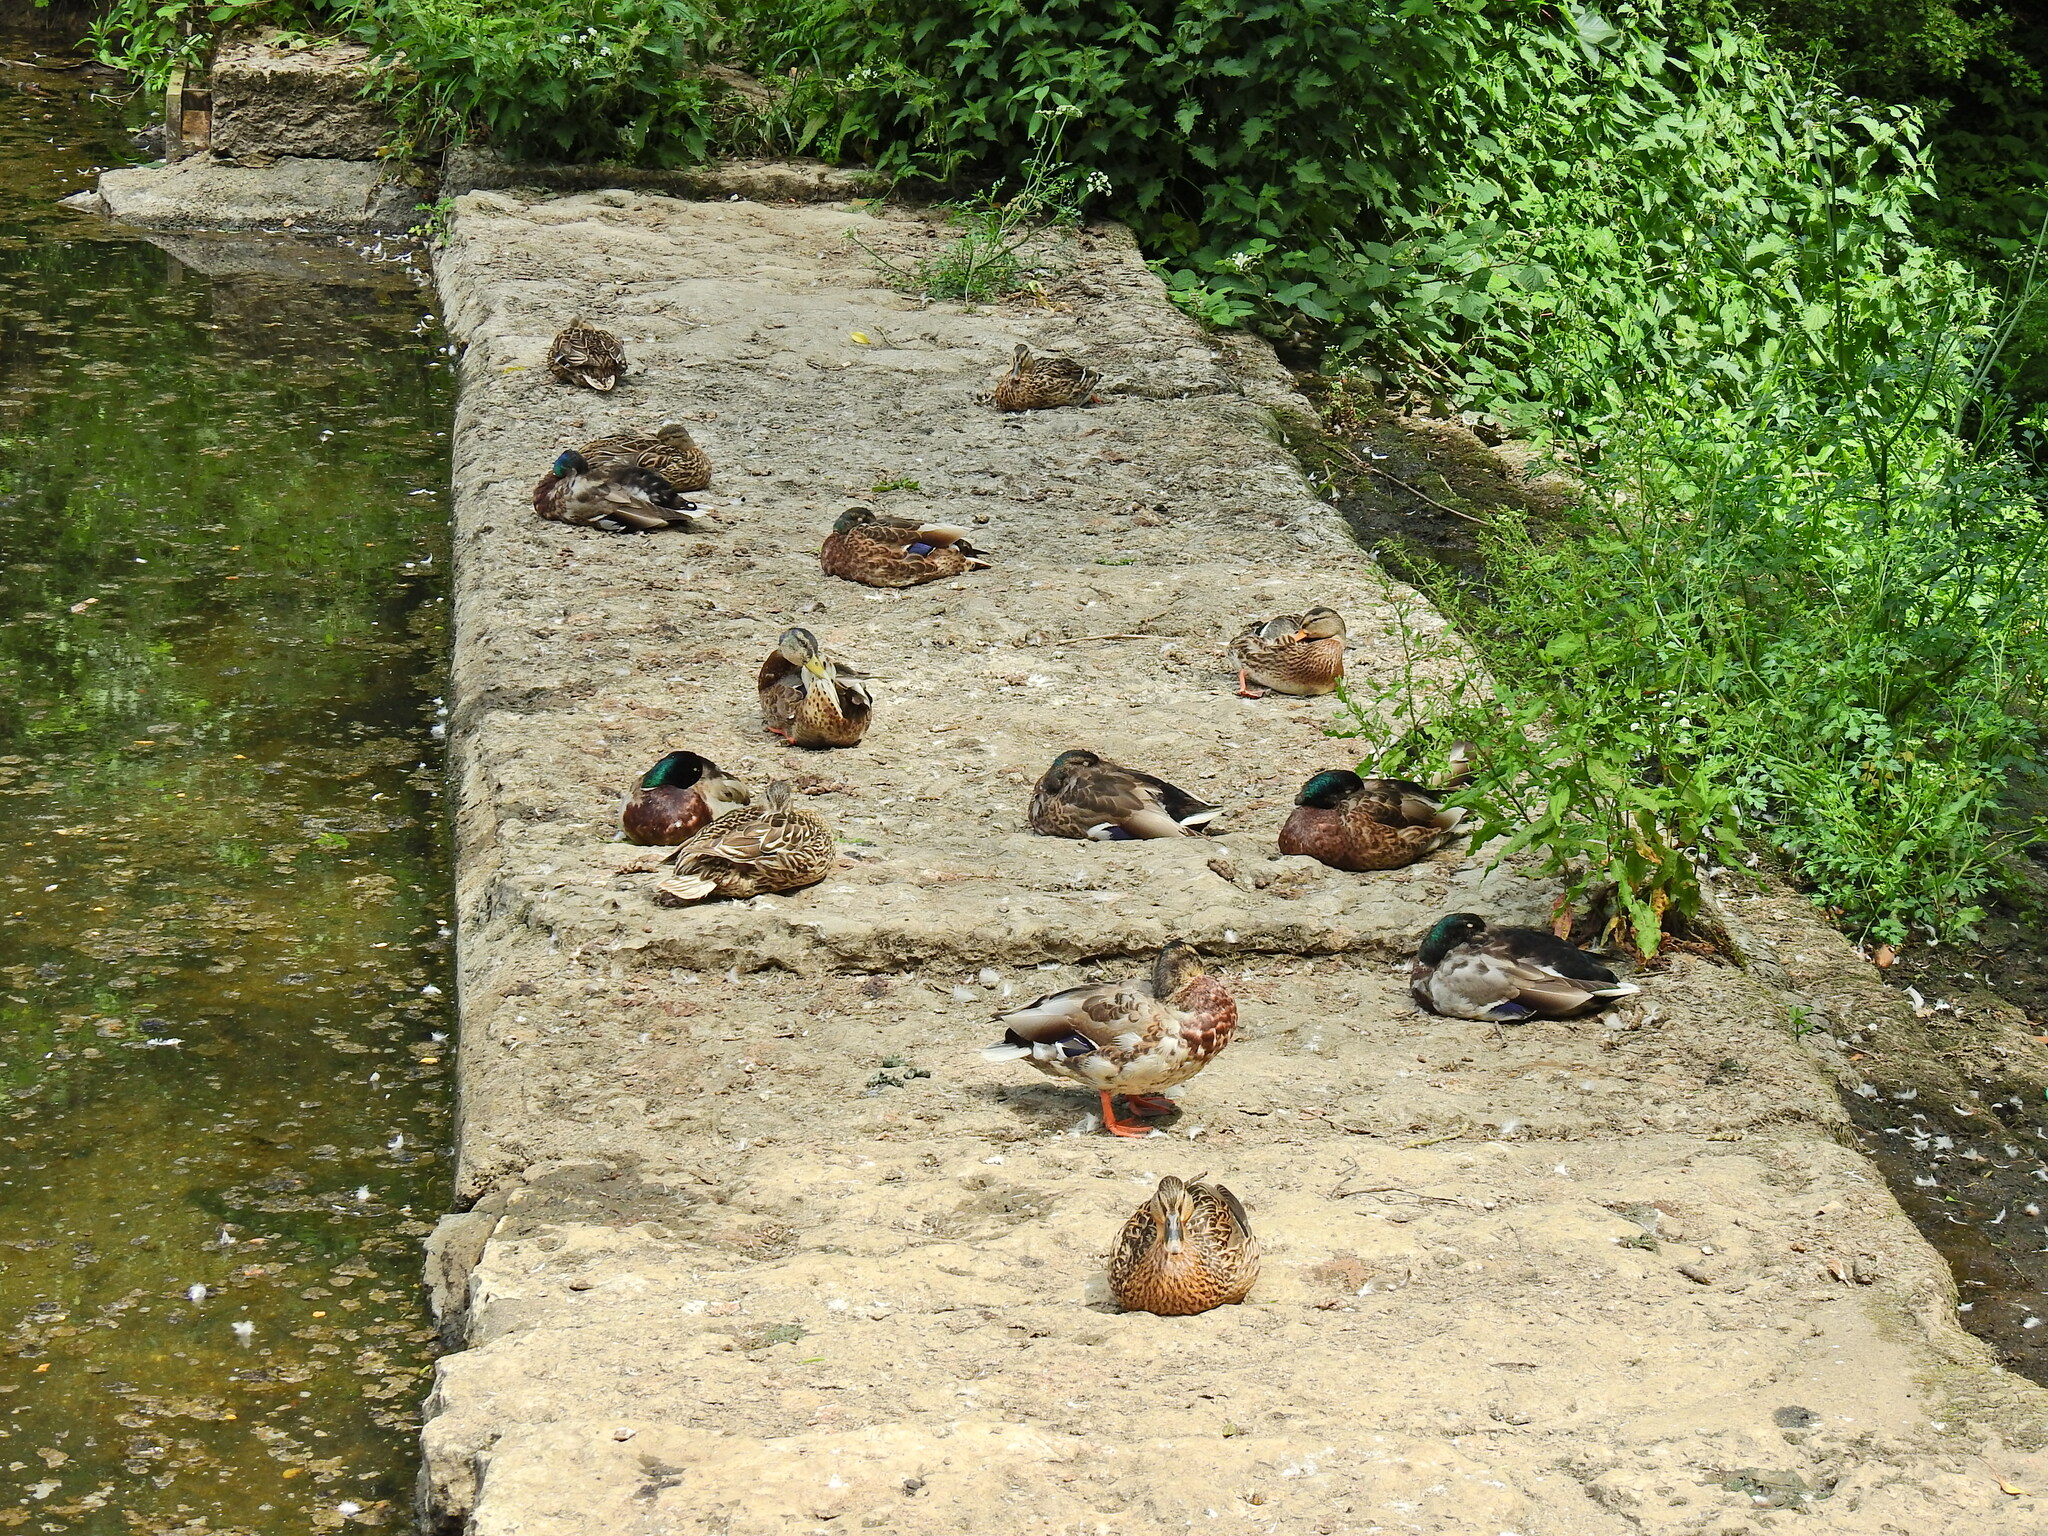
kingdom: Animalia
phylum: Chordata
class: Aves
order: Anseriformes
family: Anatidae
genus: Anas
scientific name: Anas platyrhynchos
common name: Mallard
